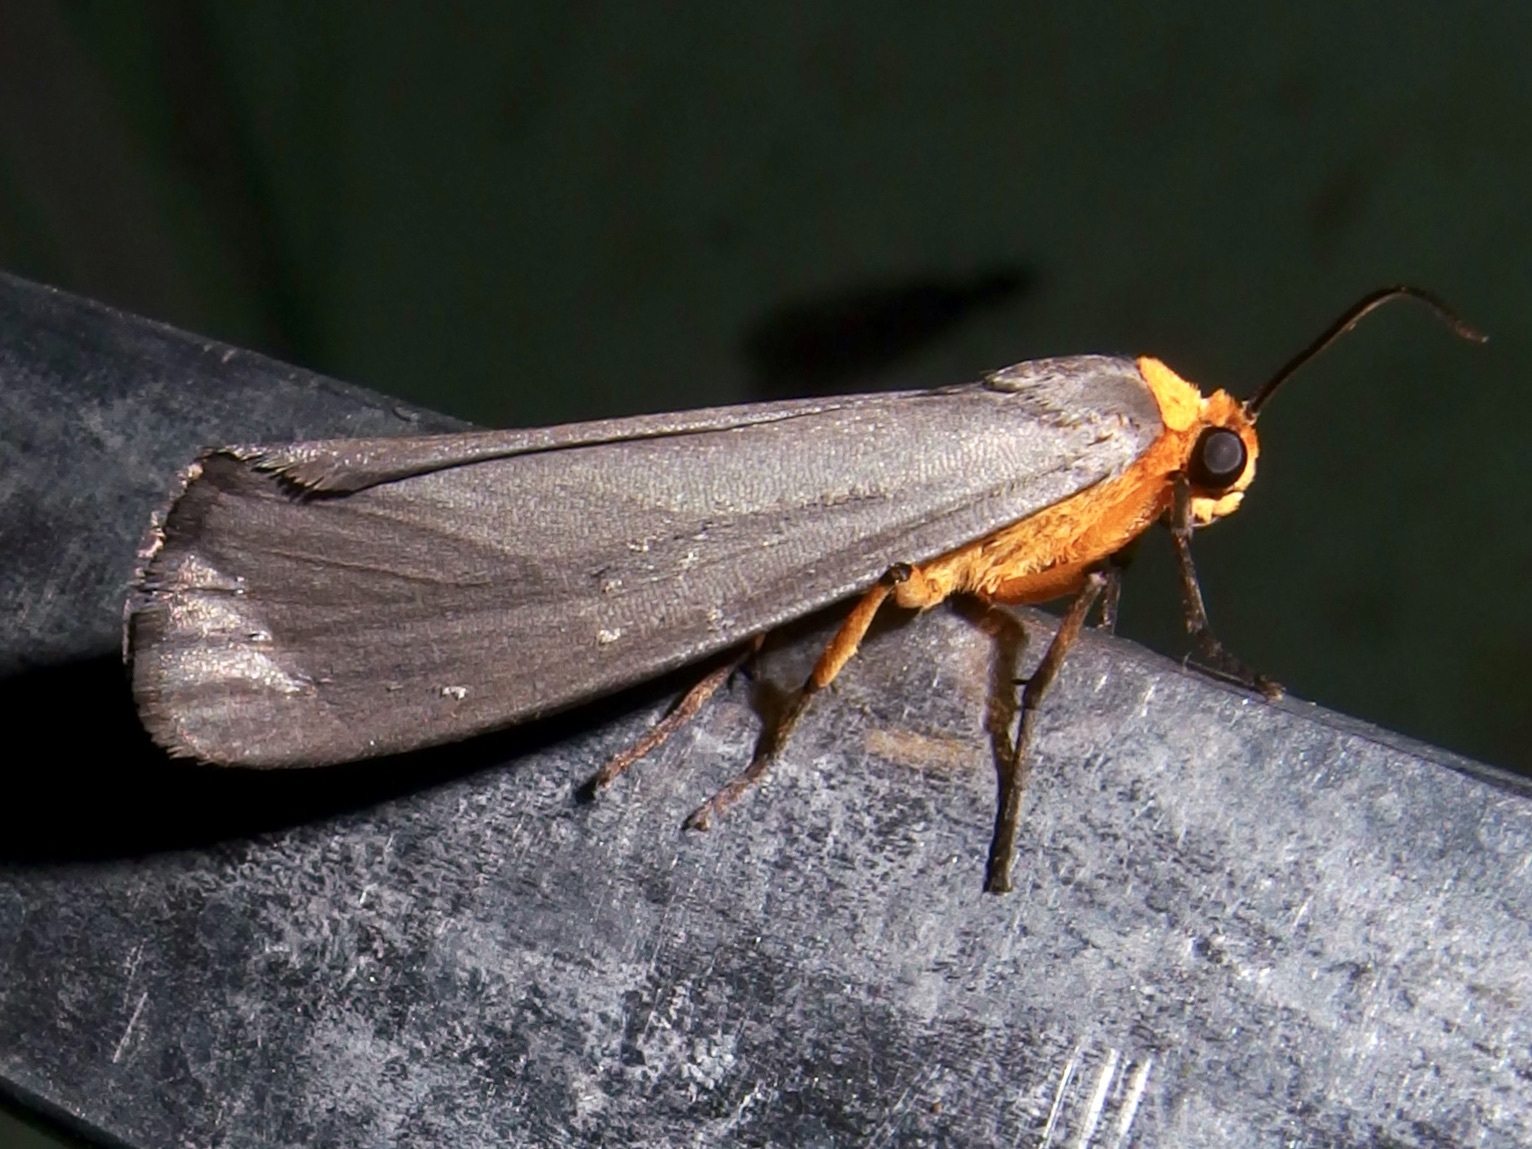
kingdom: Animalia
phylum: Arthropoda
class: Insecta
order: Lepidoptera
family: Erebidae
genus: Gnamptonychia
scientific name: Gnamptonychia ventralis
